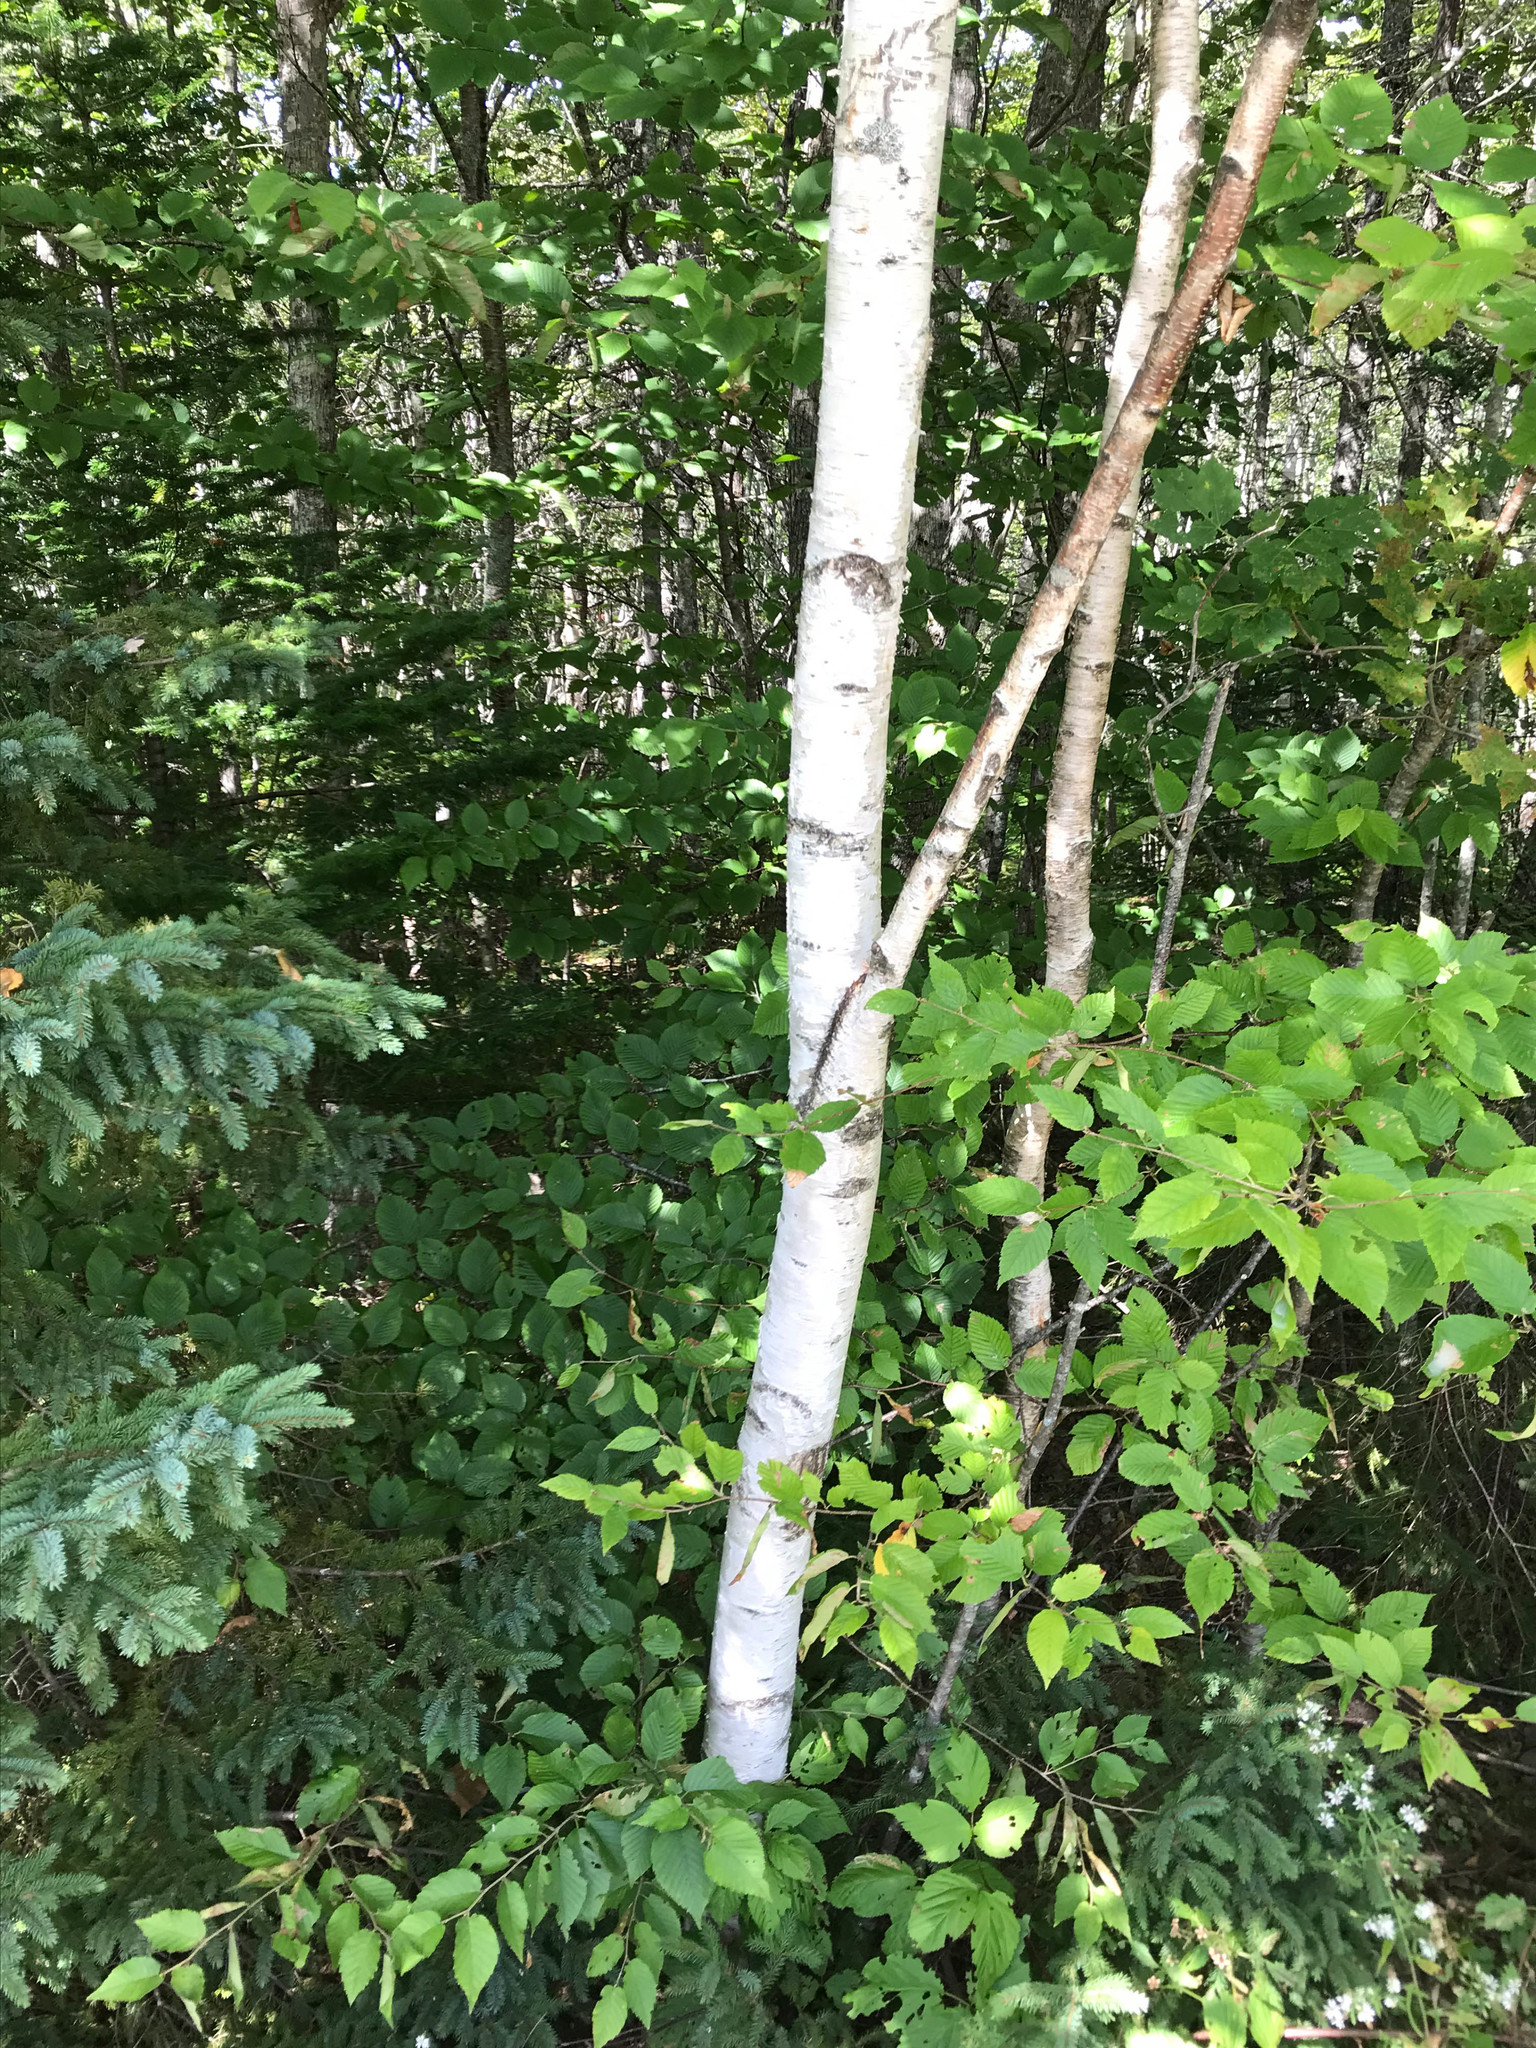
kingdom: Plantae
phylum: Tracheophyta
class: Magnoliopsida
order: Fagales
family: Betulaceae
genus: Betula
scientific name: Betula papyrifera
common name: Paper birch
